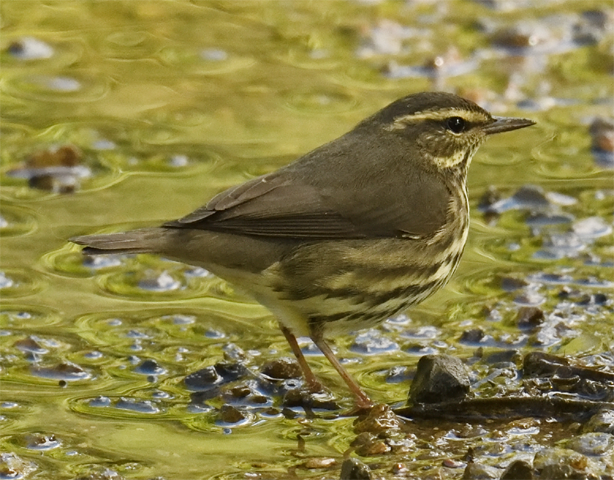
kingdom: Animalia
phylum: Chordata
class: Aves
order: Passeriformes
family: Parulidae
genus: Parkesia
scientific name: Parkesia noveboracensis
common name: Northern waterthrush
